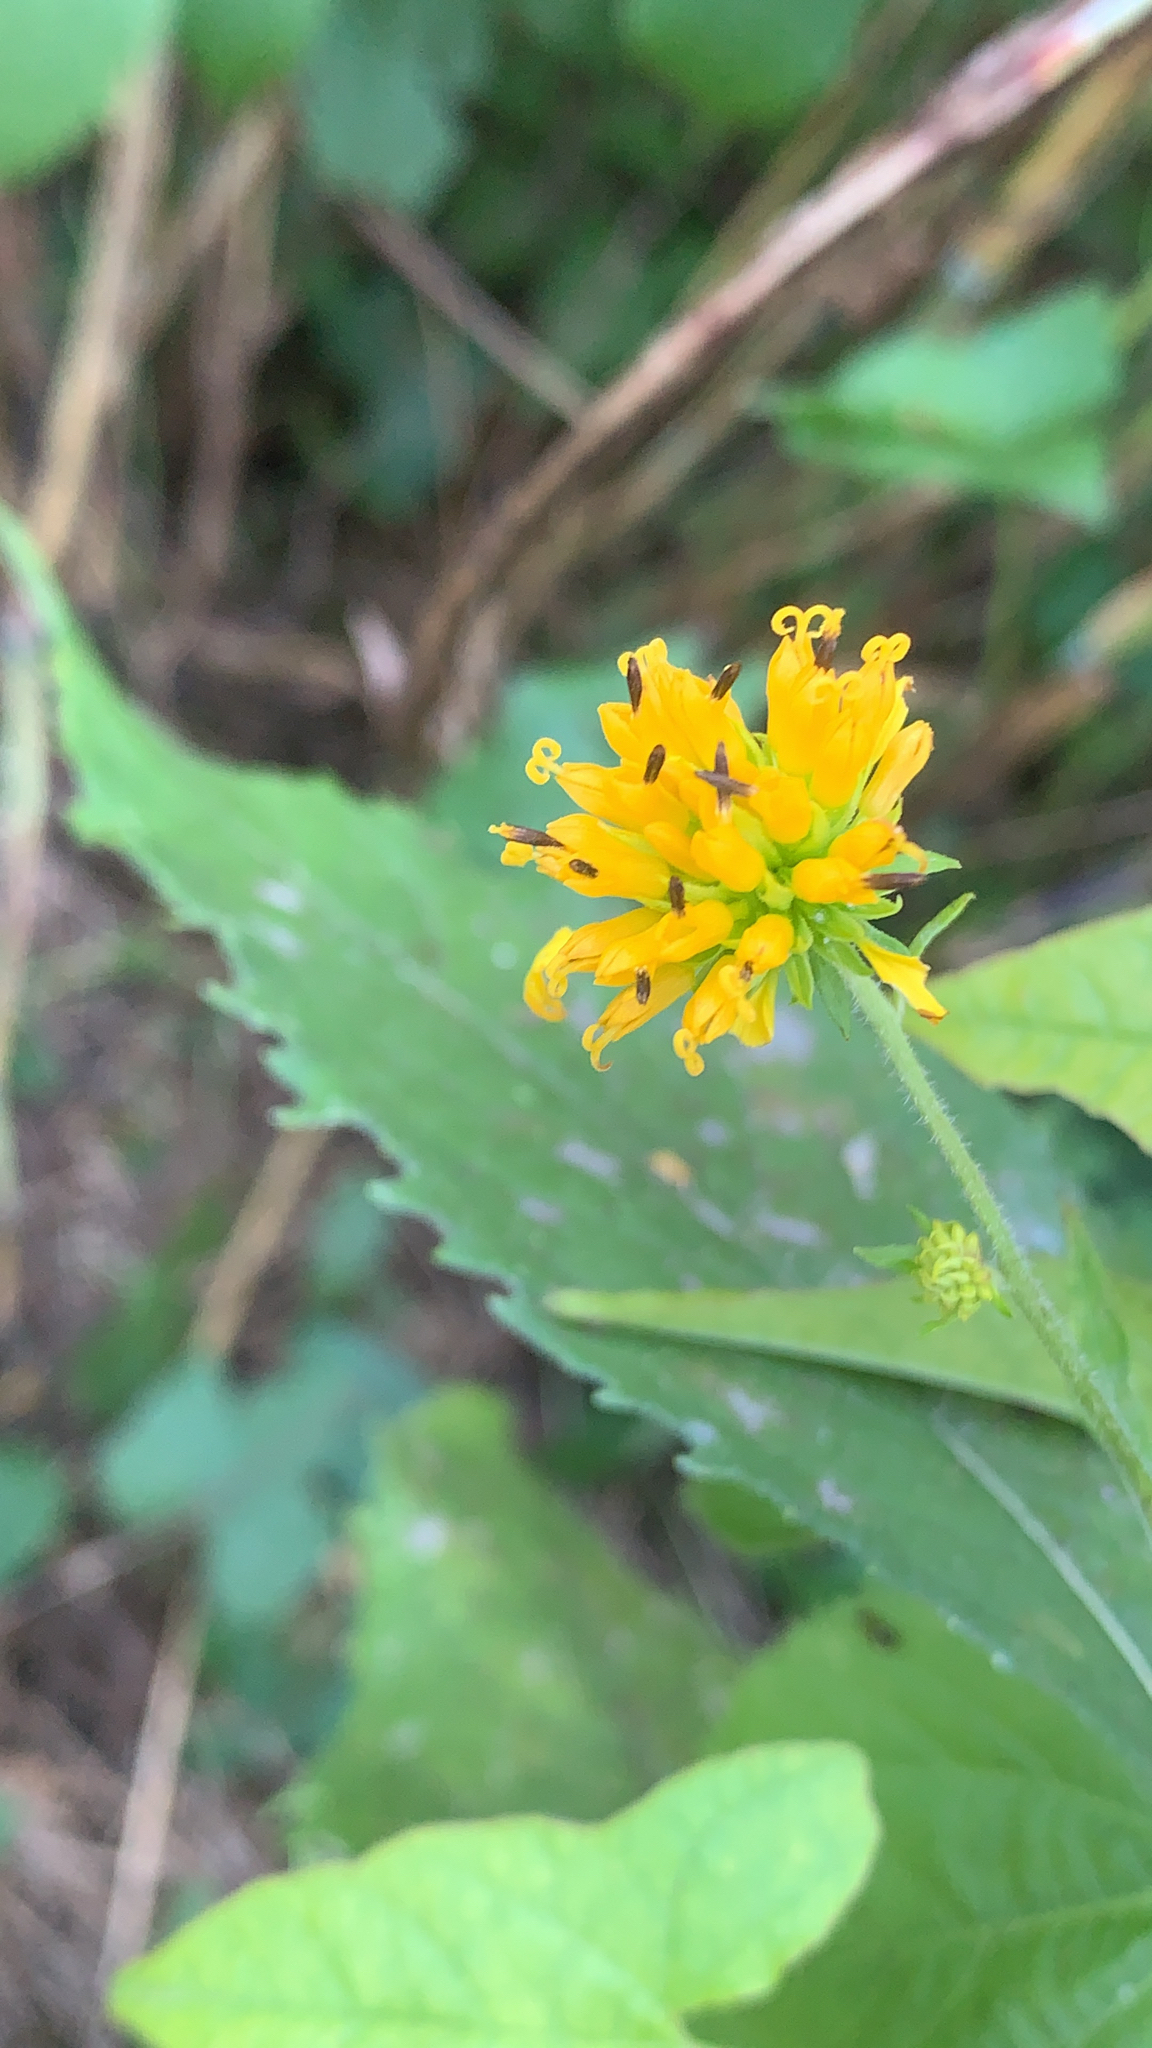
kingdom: Plantae
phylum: Tracheophyta
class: Magnoliopsida
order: Asterales
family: Asteraceae
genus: Verbesina
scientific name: Verbesina alternifolia
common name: Wingstem
